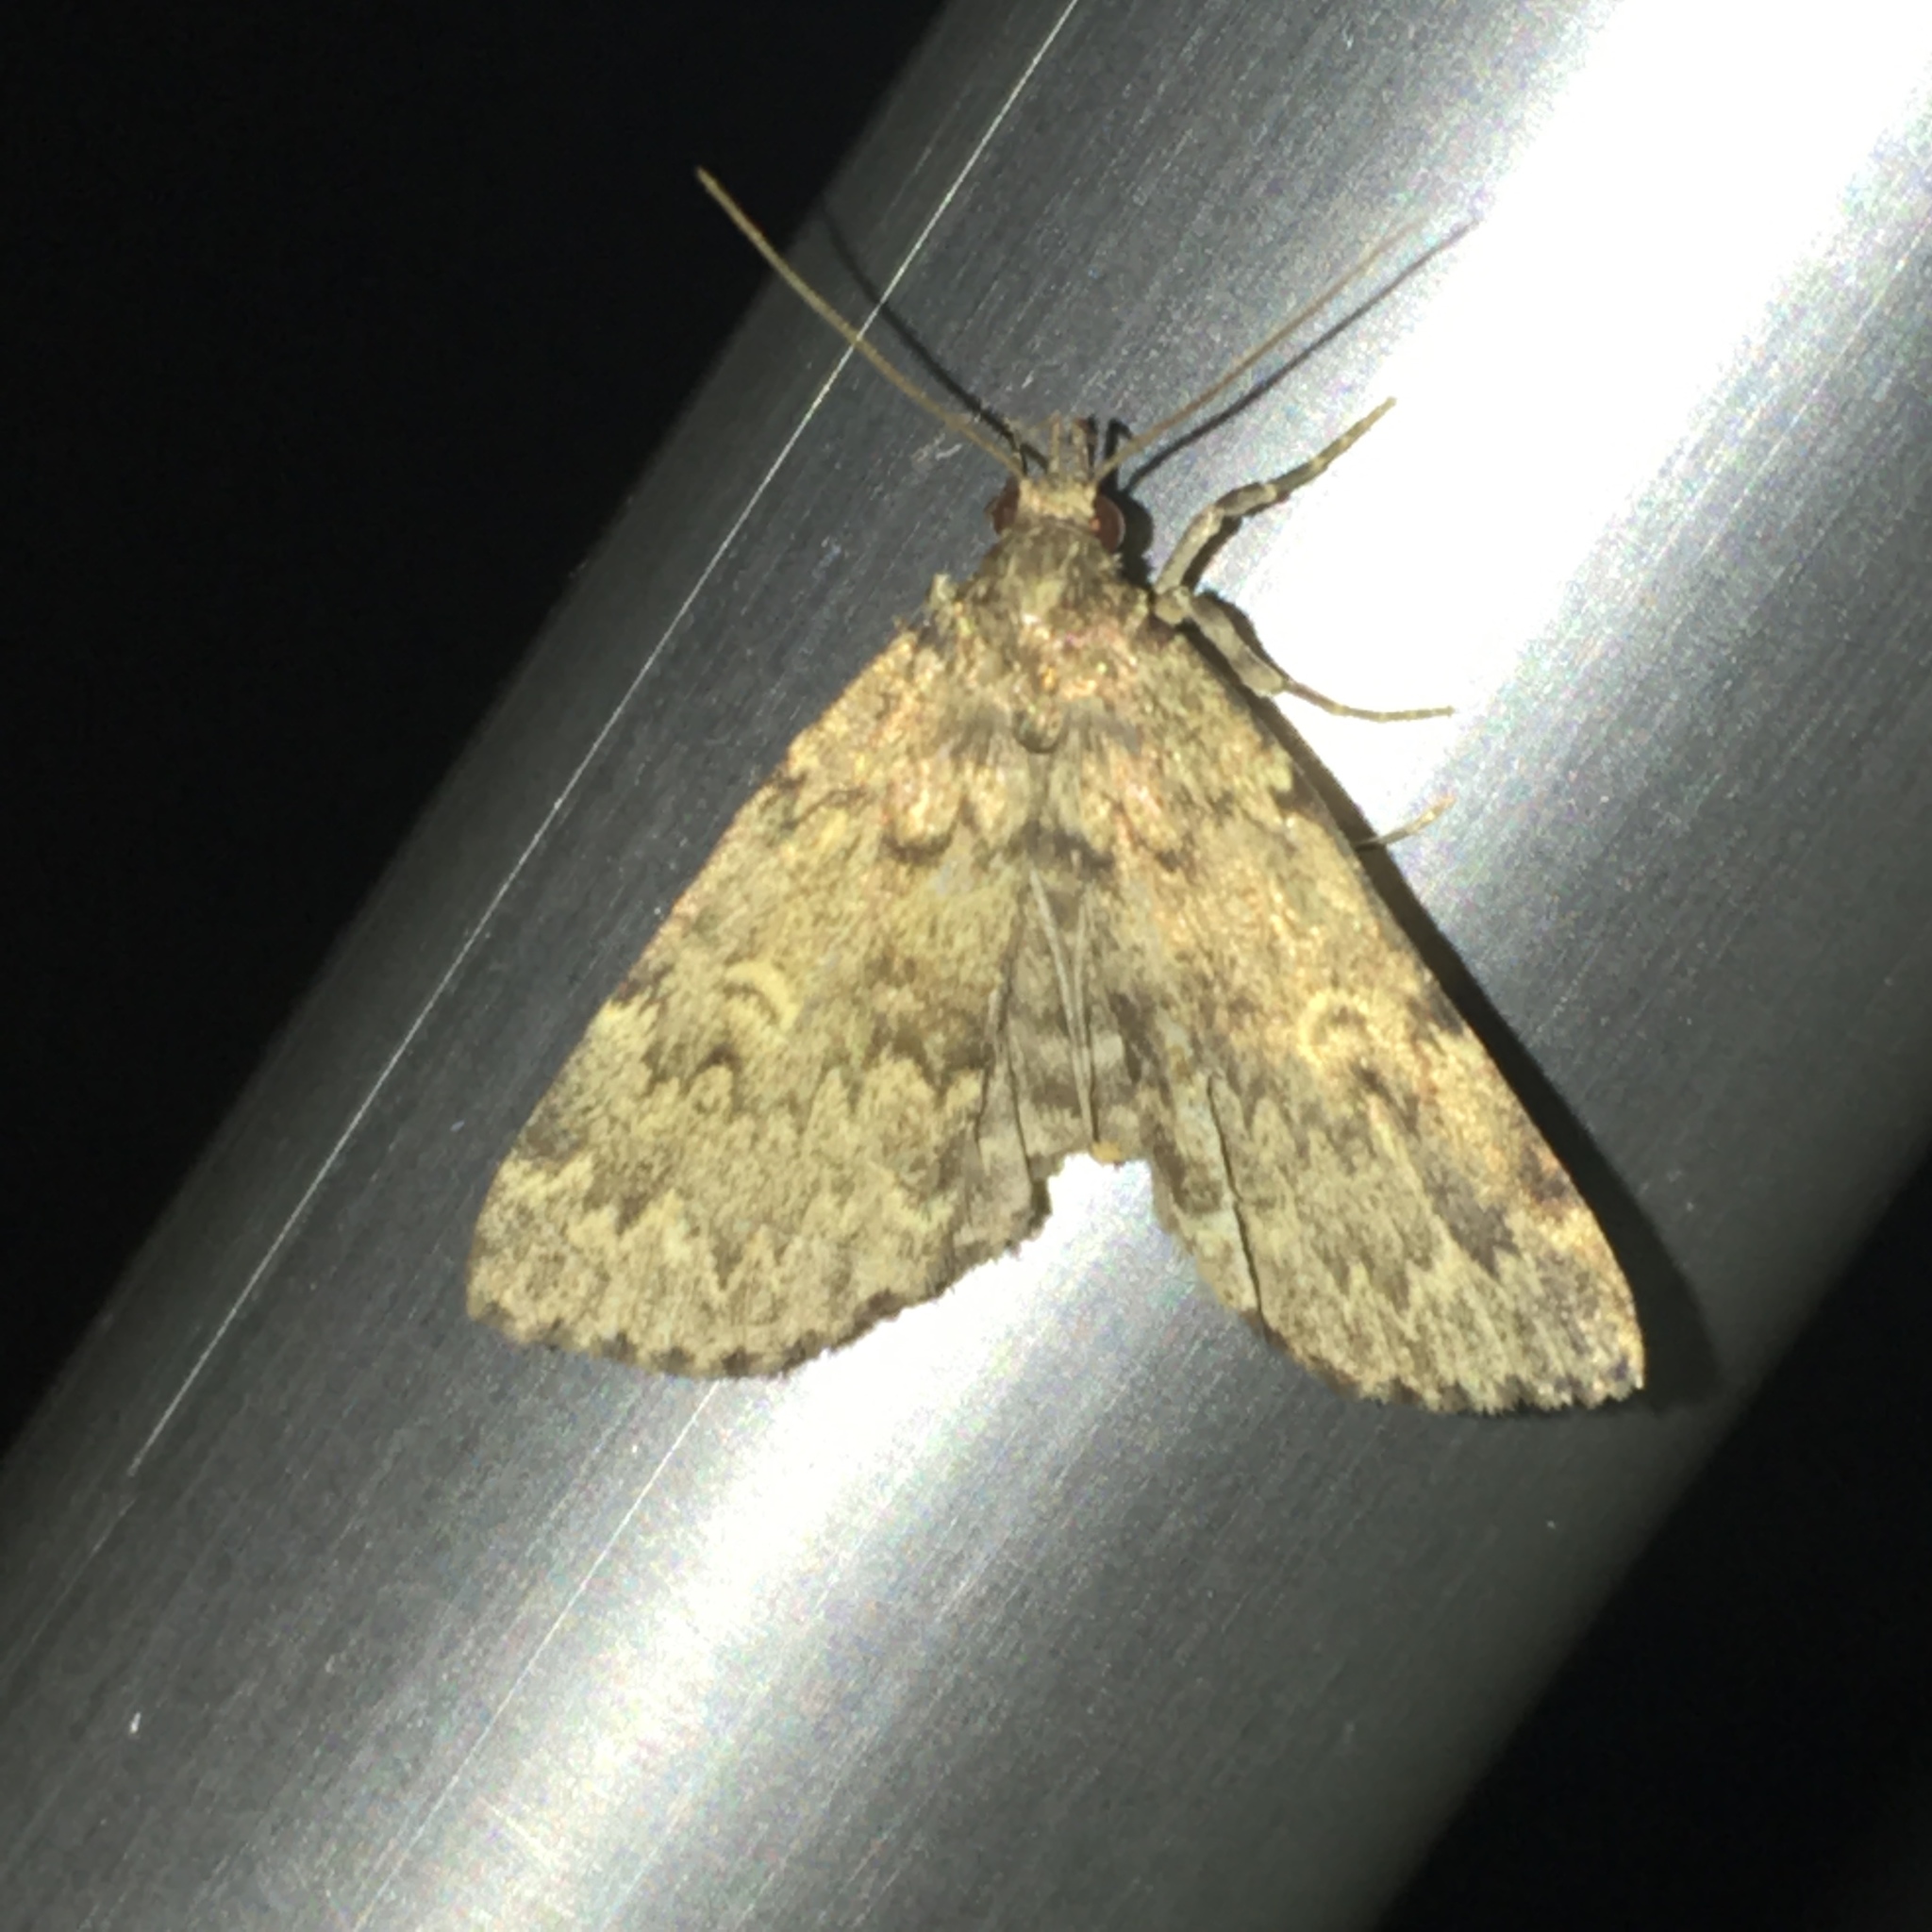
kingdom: Animalia
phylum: Arthropoda
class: Insecta
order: Lepidoptera
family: Erebidae
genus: Idia
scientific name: Idia denticulalis
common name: Toothed idia moth
